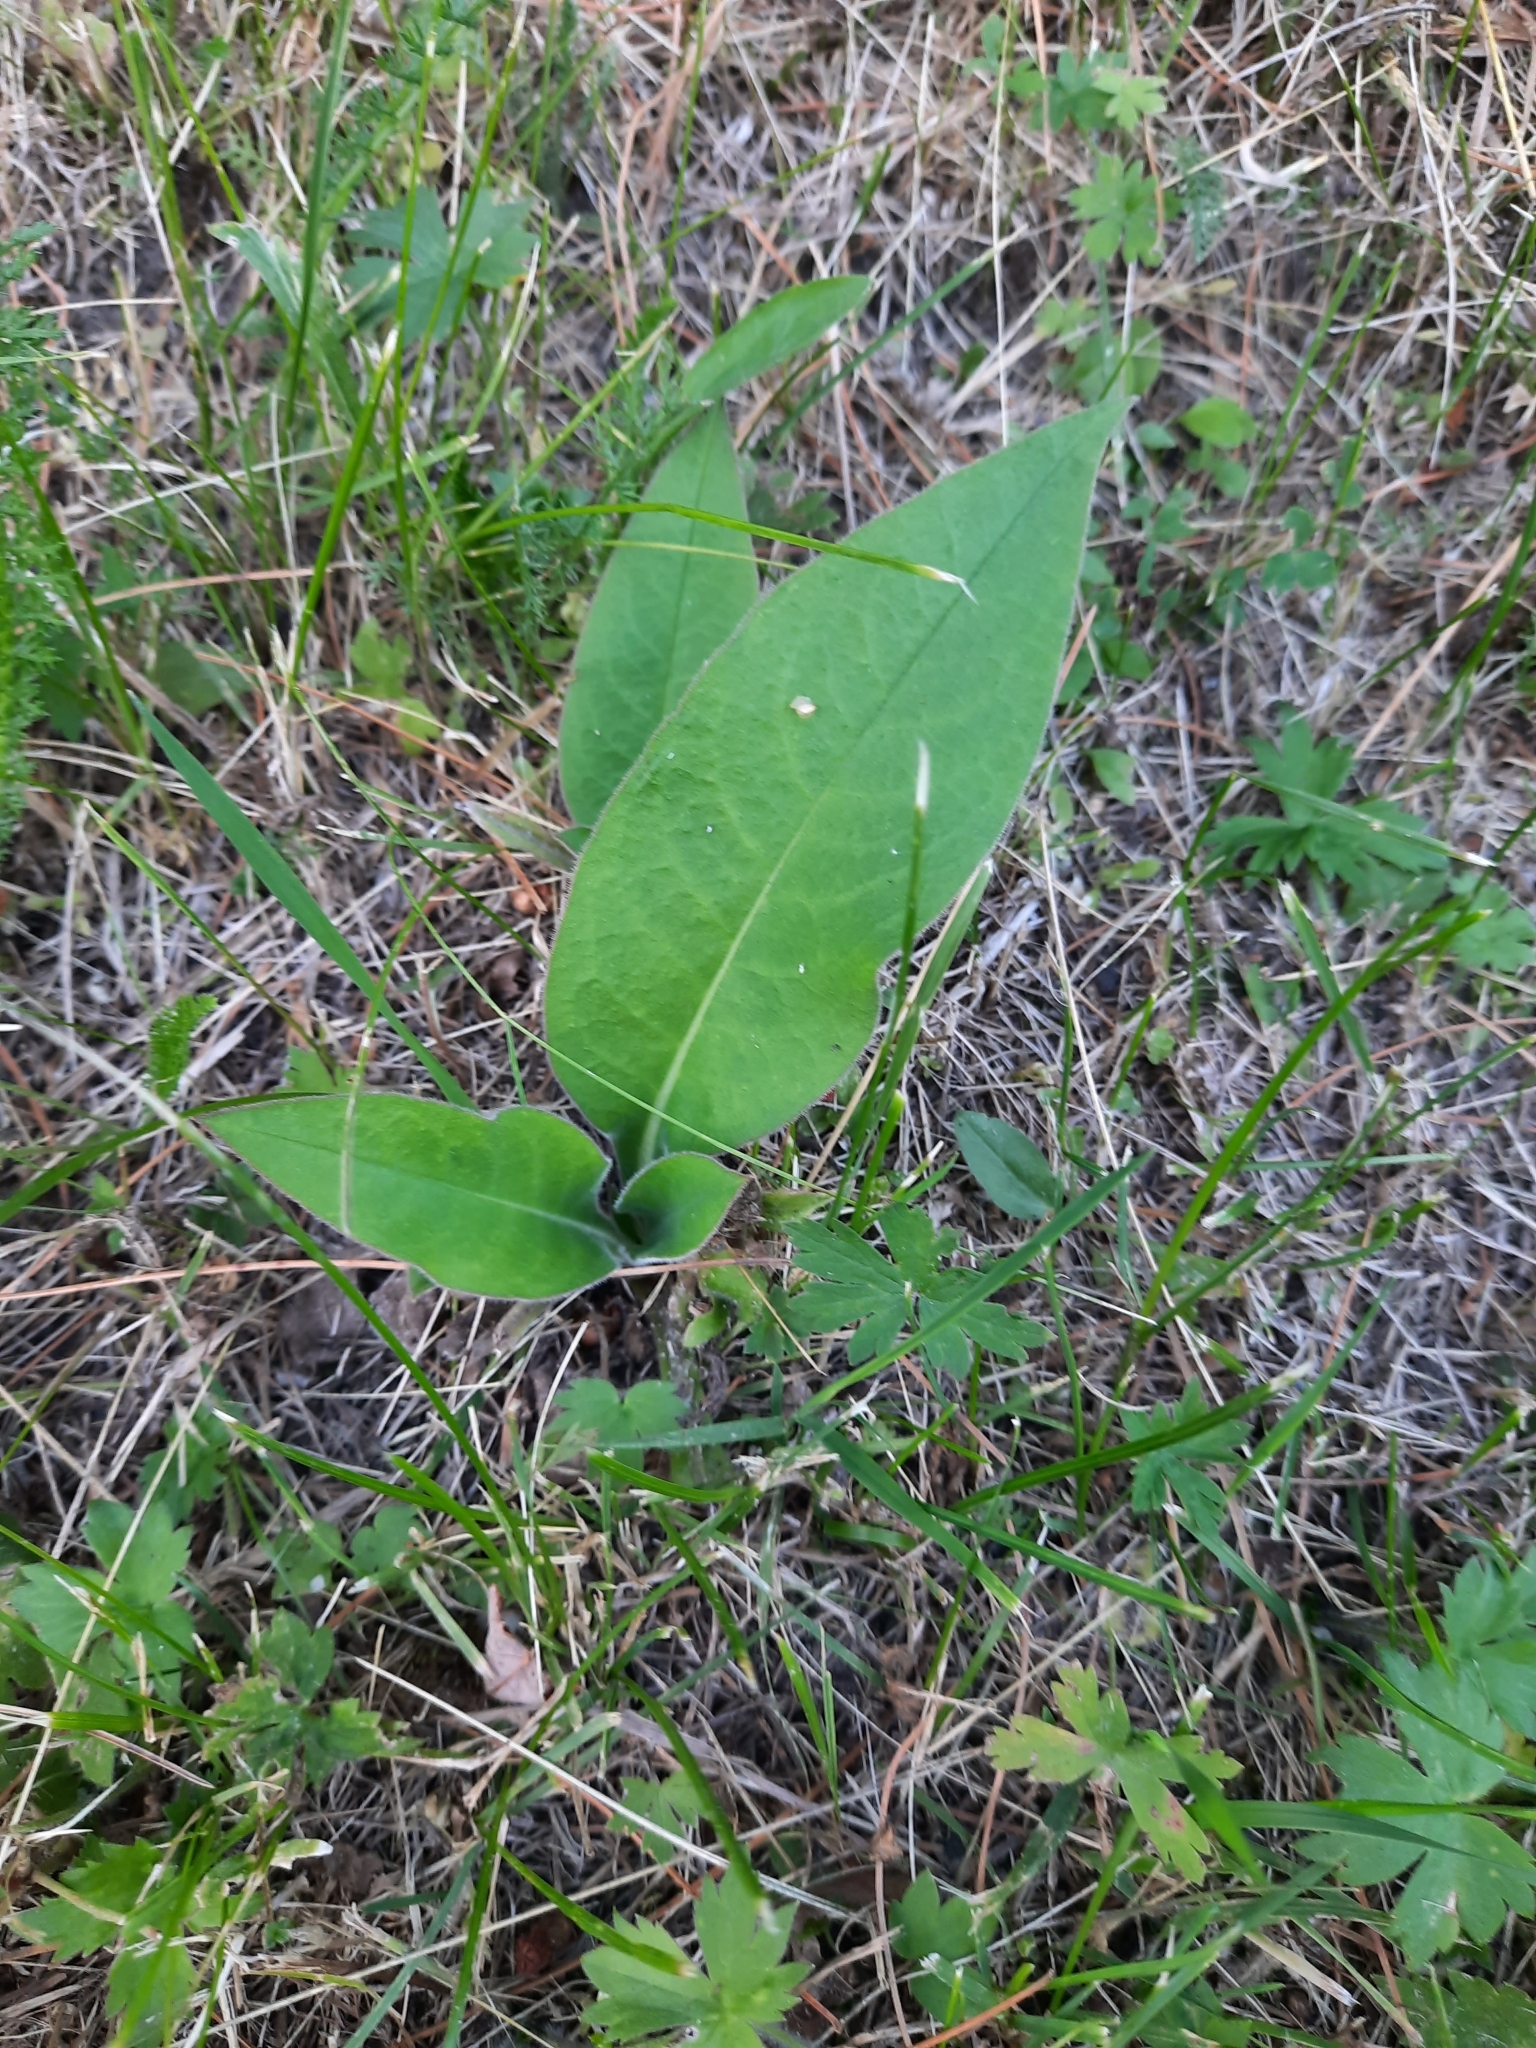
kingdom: Plantae
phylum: Tracheophyta
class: Magnoliopsida
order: Boraginales
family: Boraginaceae
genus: Pulmonaria
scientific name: Pulmonaria mollis
